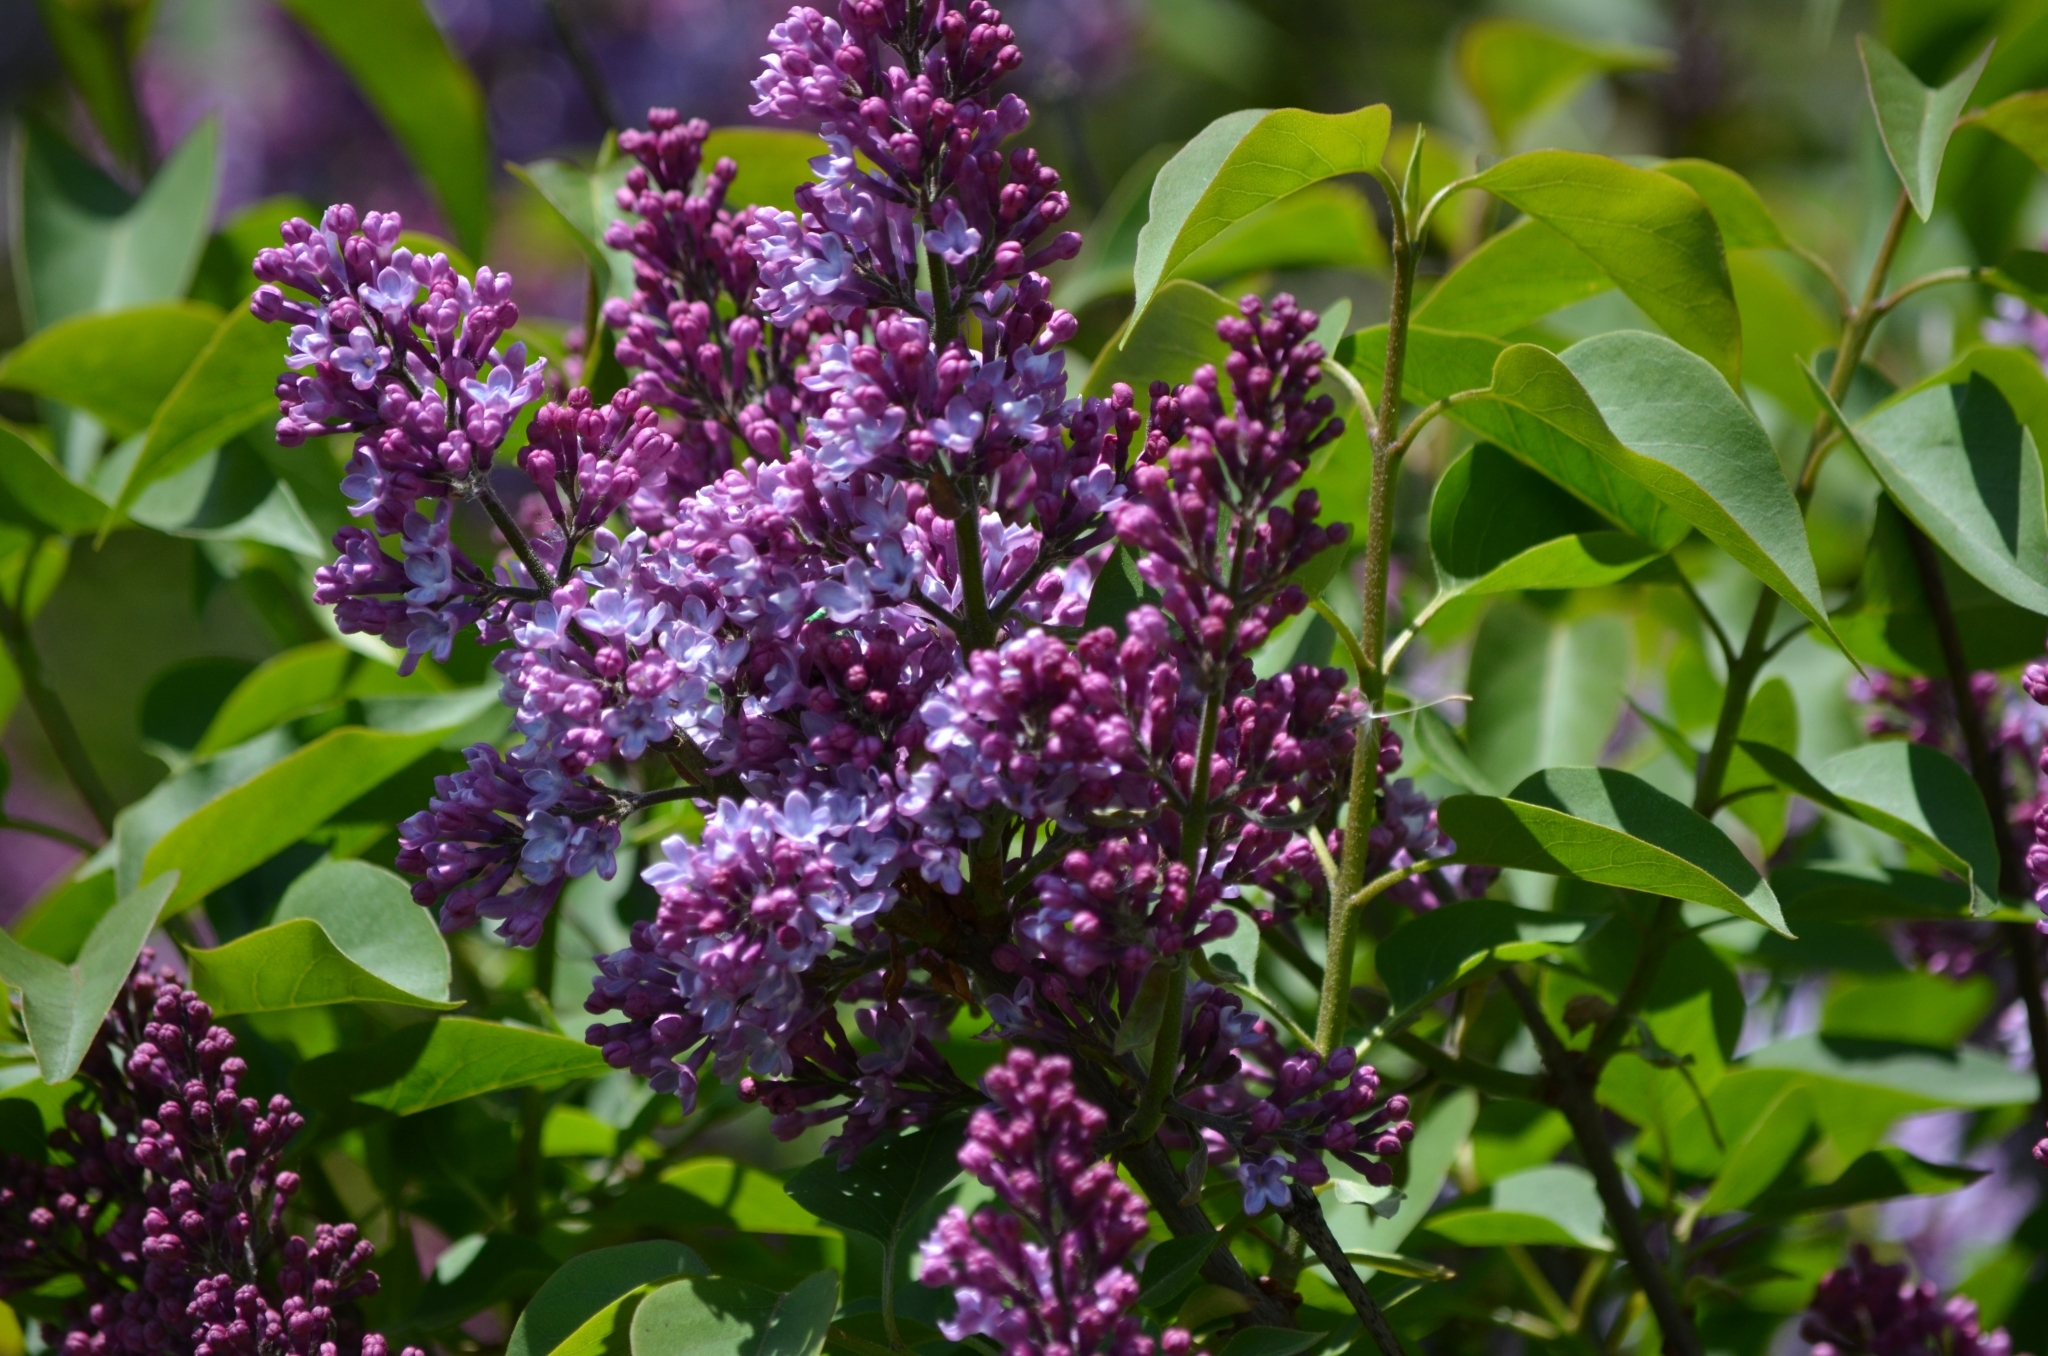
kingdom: Plantae
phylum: Tracheophyta
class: Magnoliopsida
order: Lamiales
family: Oleaceae
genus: Syringa
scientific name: Syringa vulgaris
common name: Common lilac
